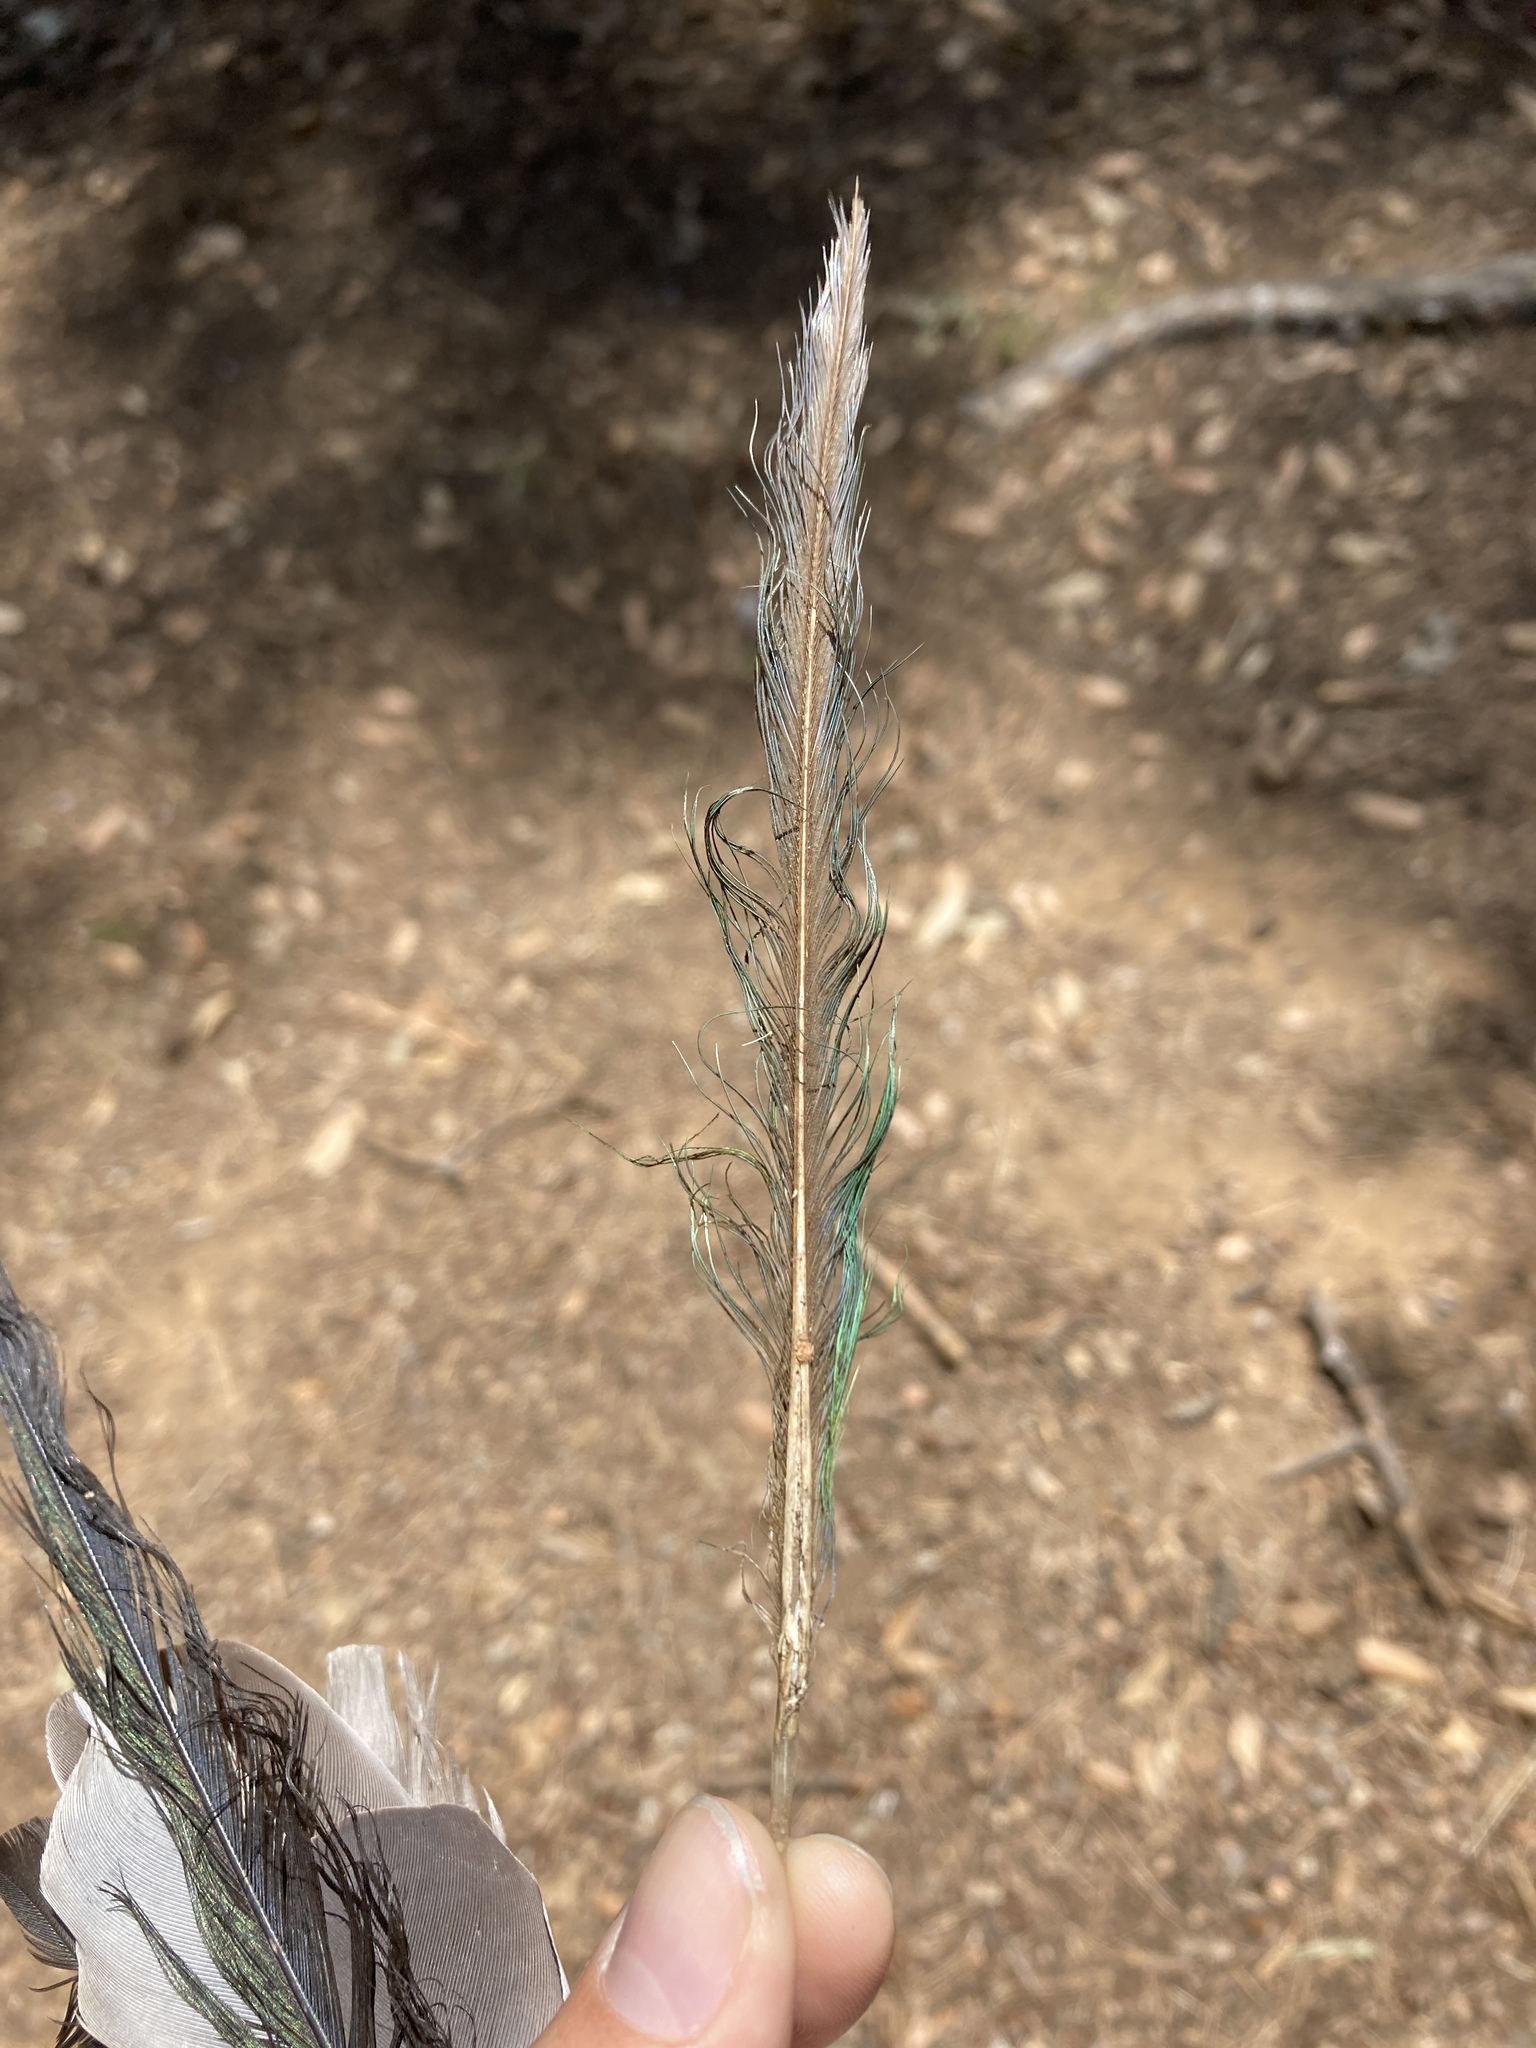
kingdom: Animalia
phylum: Chordata
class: Aves
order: Psittaciformes
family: Psittacidae
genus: Myiopsitta
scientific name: Myiopsitta monachus
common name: Monk parakeet
